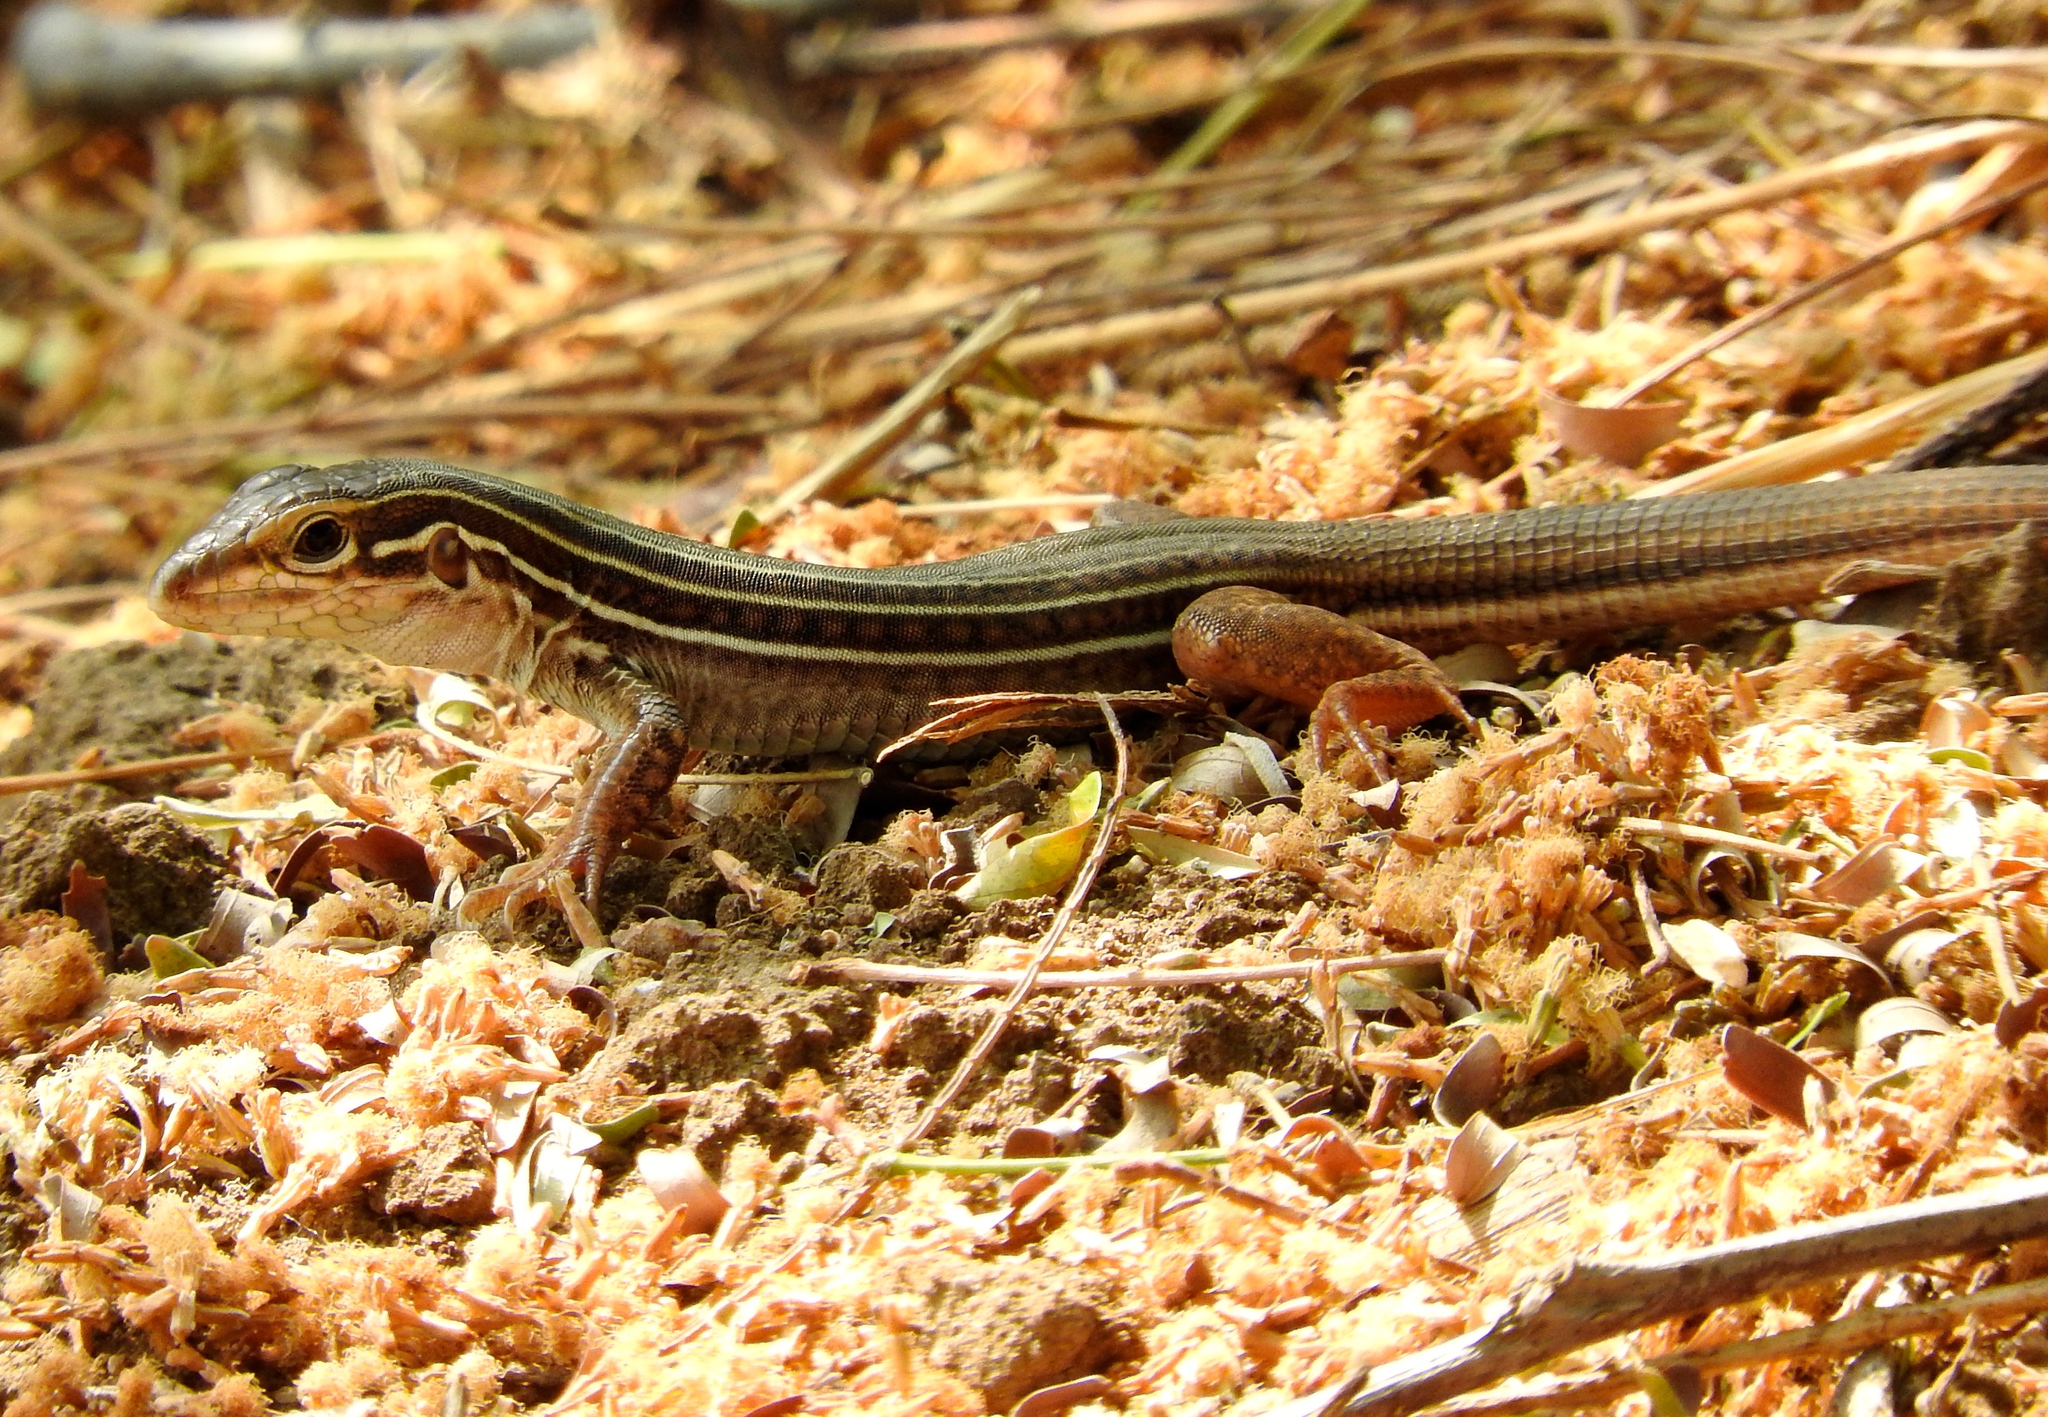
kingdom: Animalia
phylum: Chordata
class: Squamata
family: Teiidae
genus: Aspidoscelis
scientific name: Aspidoscelis costatus
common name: Western mexico whiptail
